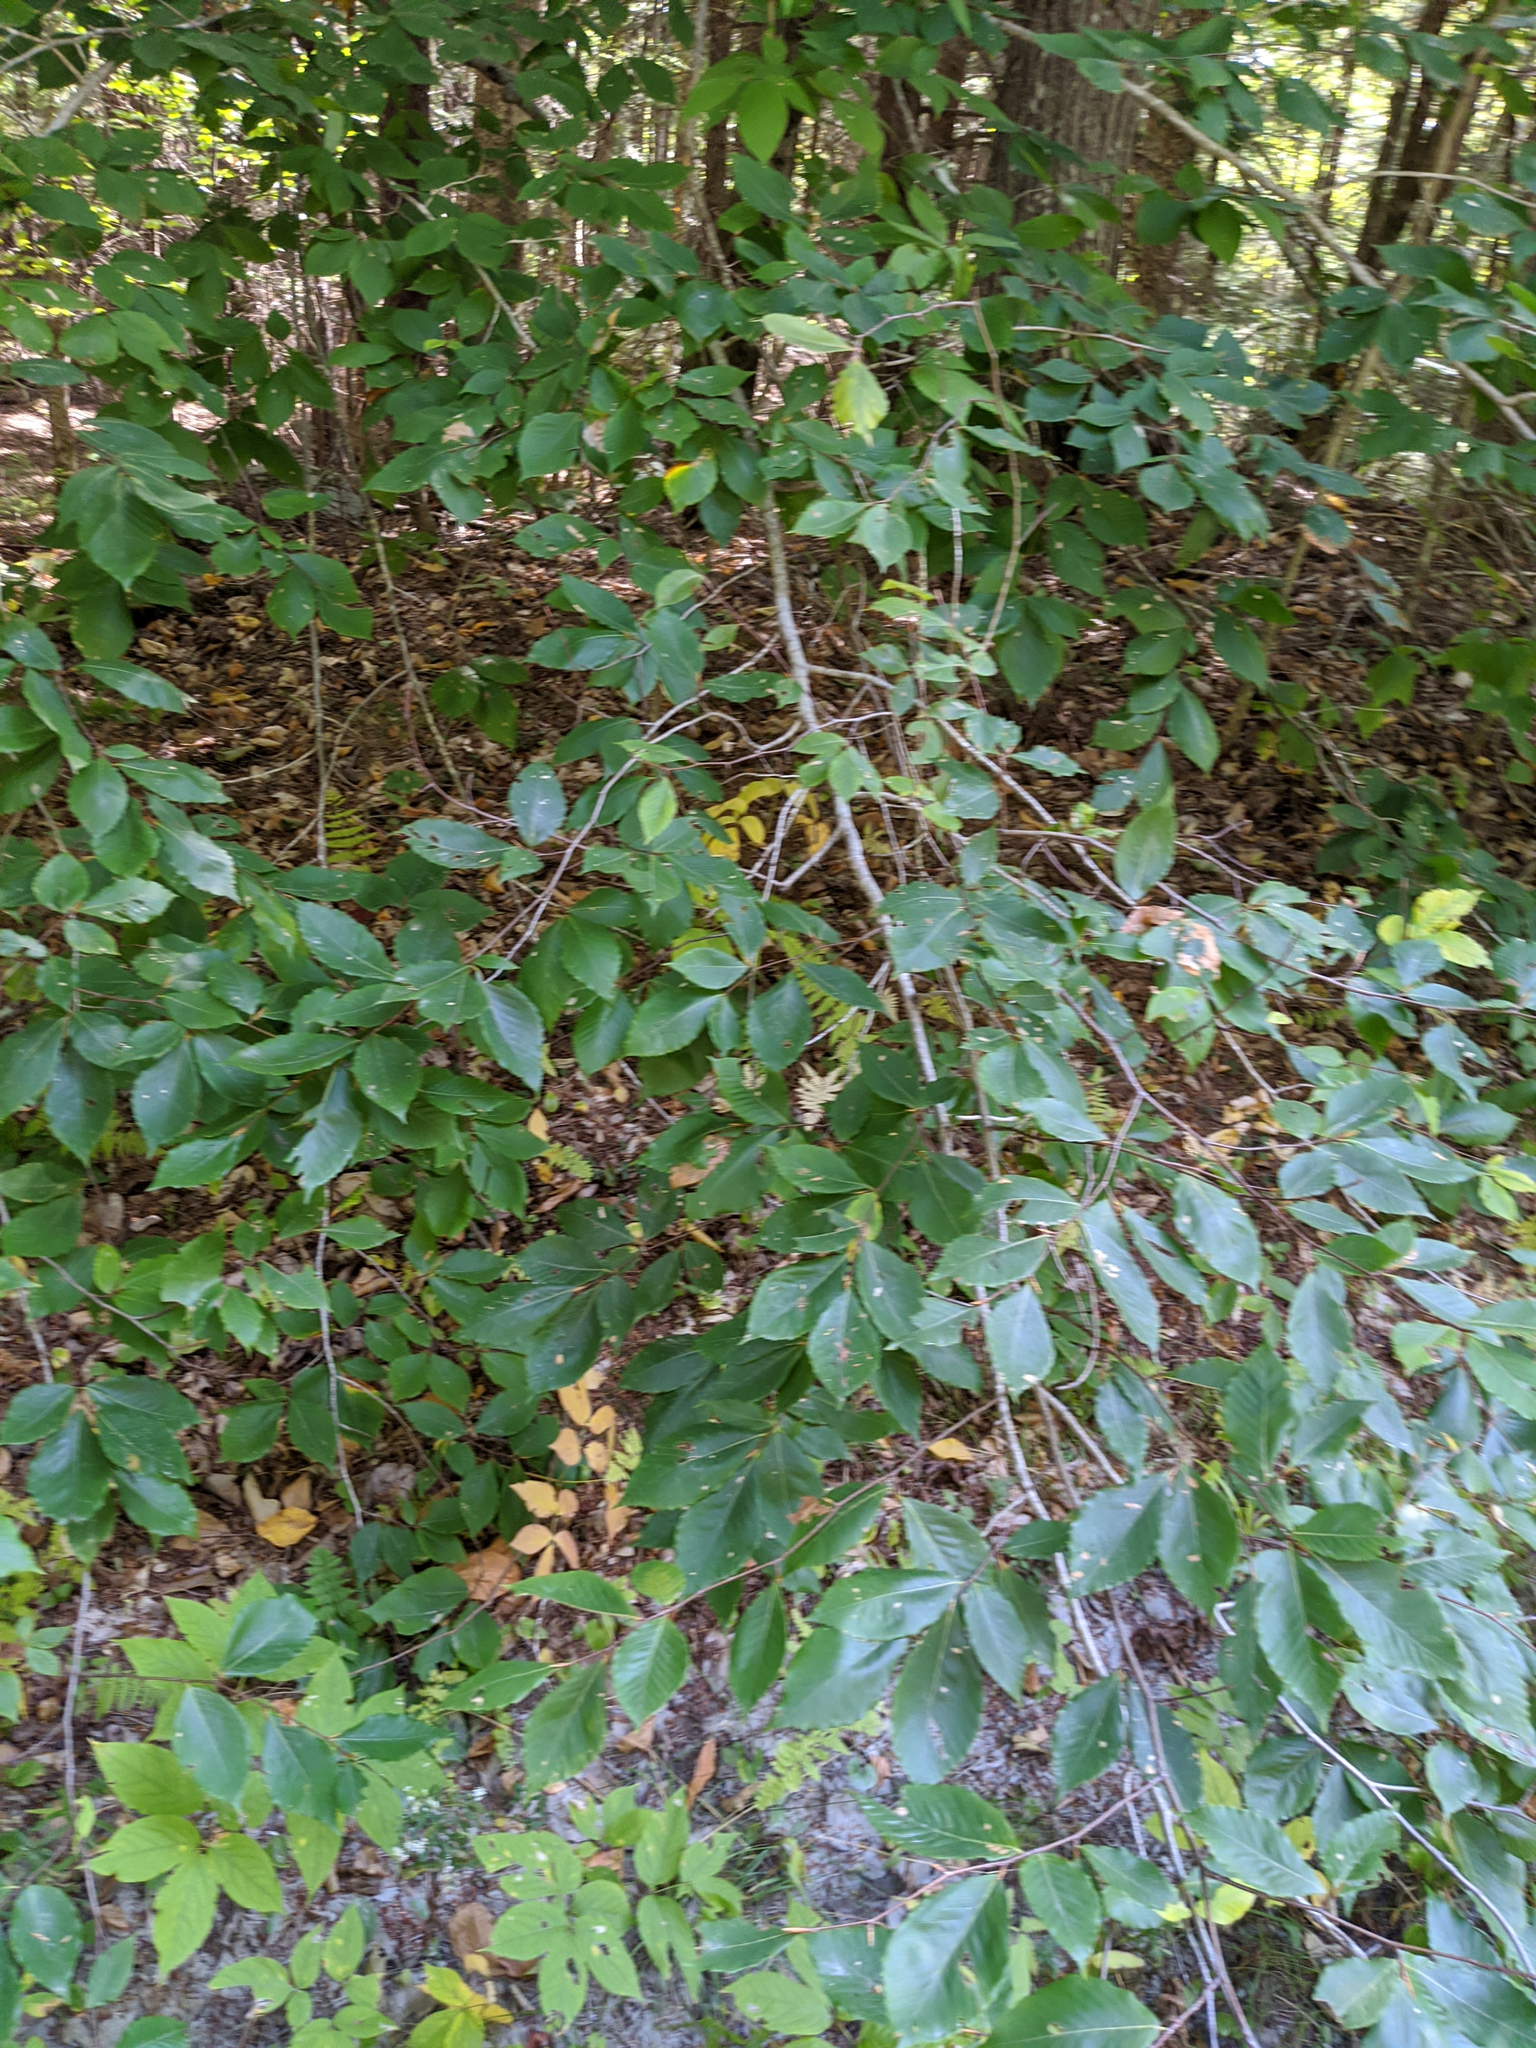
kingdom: Plantae
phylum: Tracheophyta
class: Magnoliopsida
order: Fagales
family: Fagaceae
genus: Fagus
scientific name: Fagus grandifolia
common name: American beech
